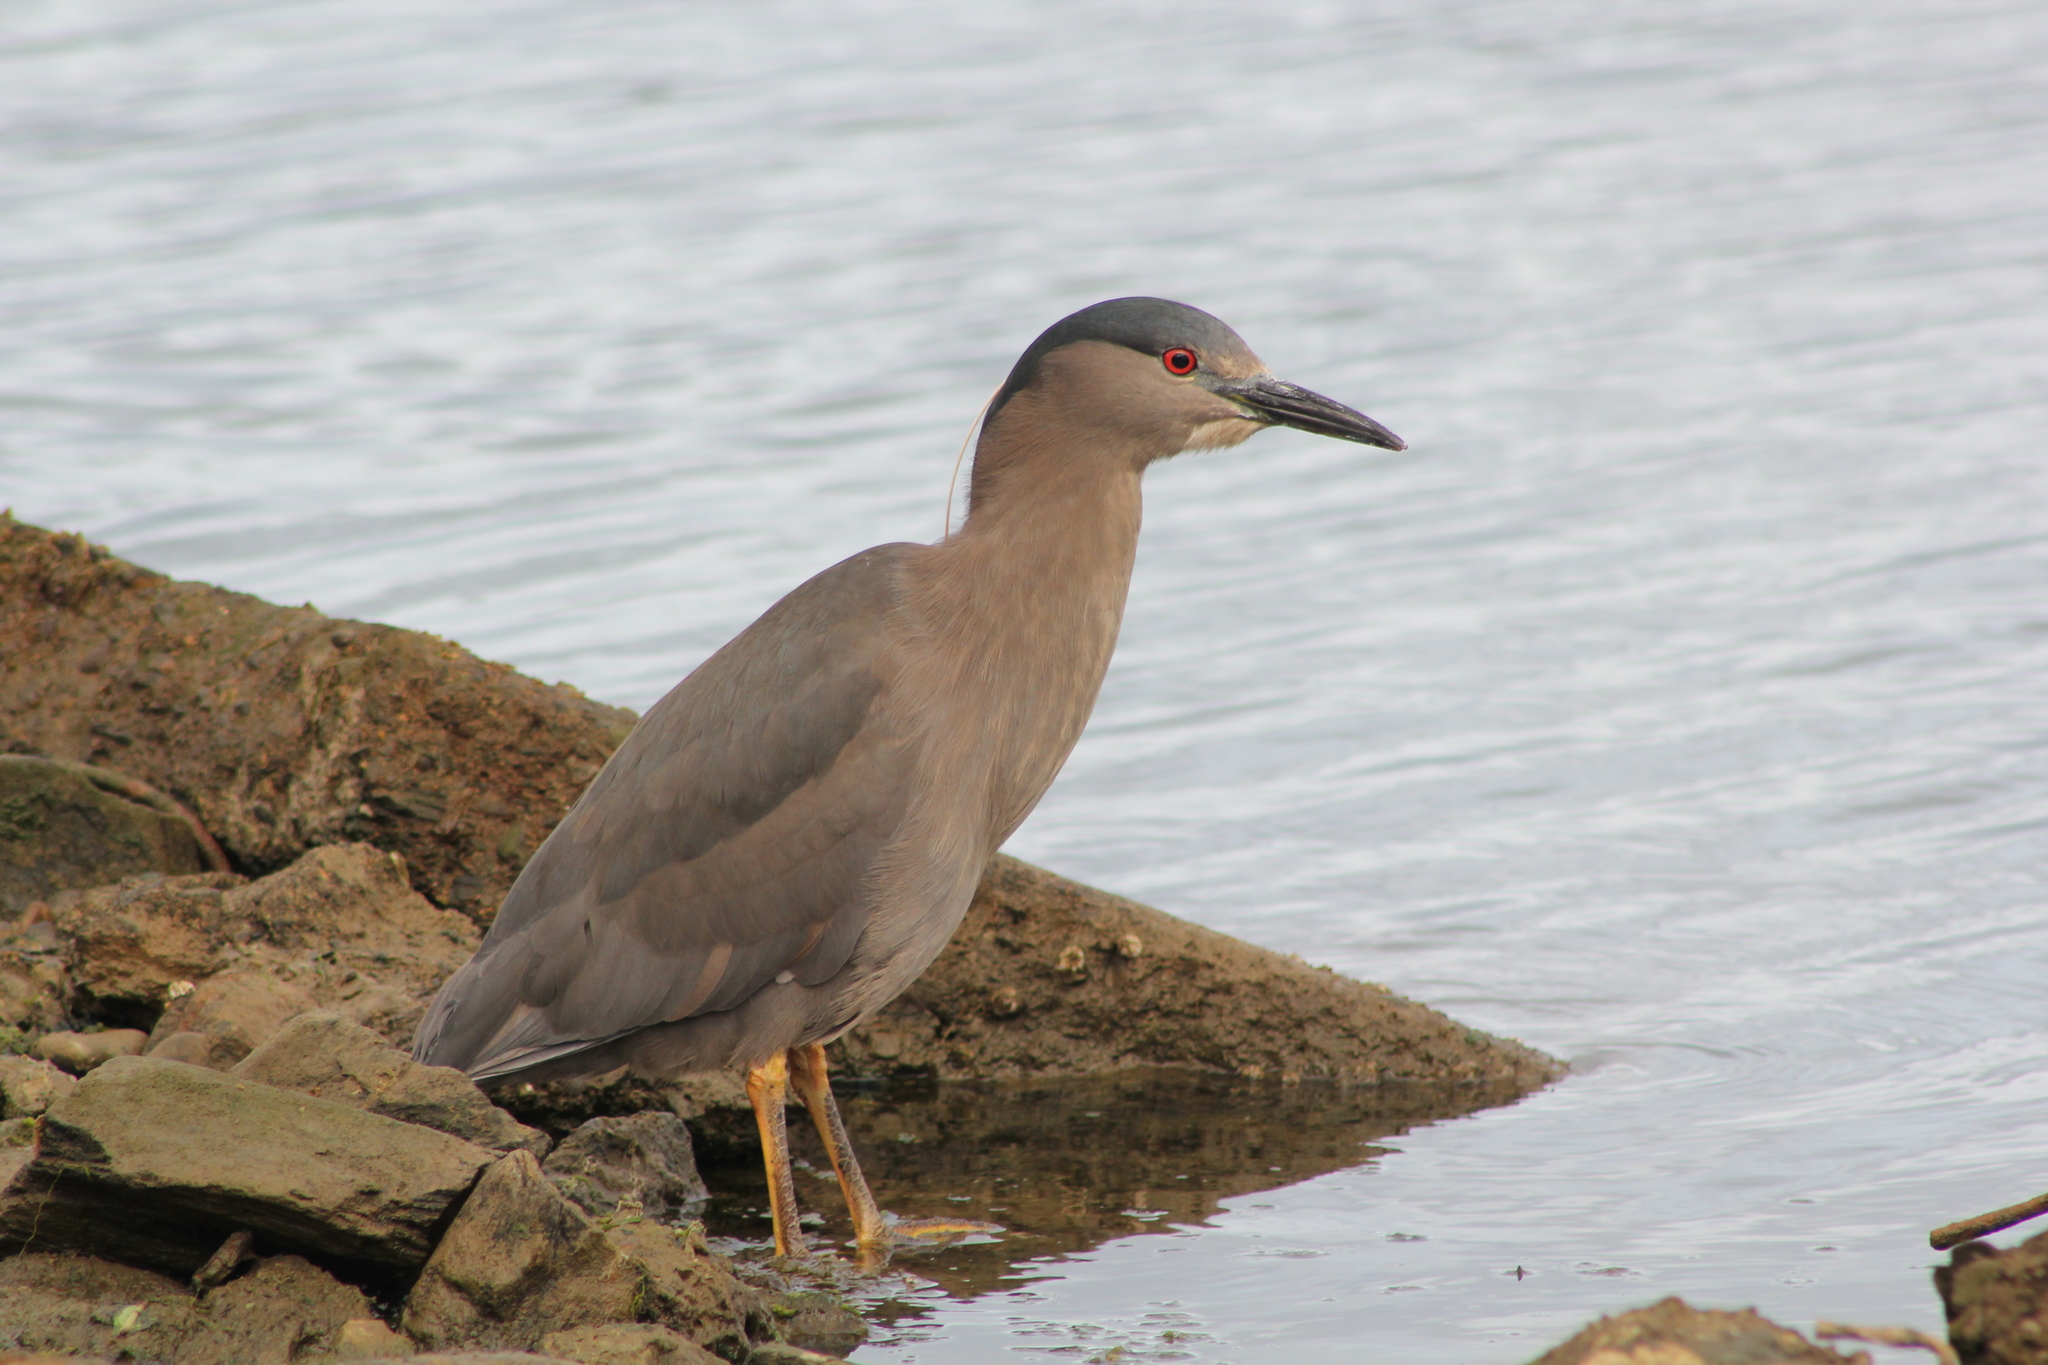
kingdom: Animalia
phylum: Chordata
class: Aves
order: Pelecaniformes
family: Ardeidae
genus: Nycticorax
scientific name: Nycticorax nycticorax
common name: Black-crowned night heron
